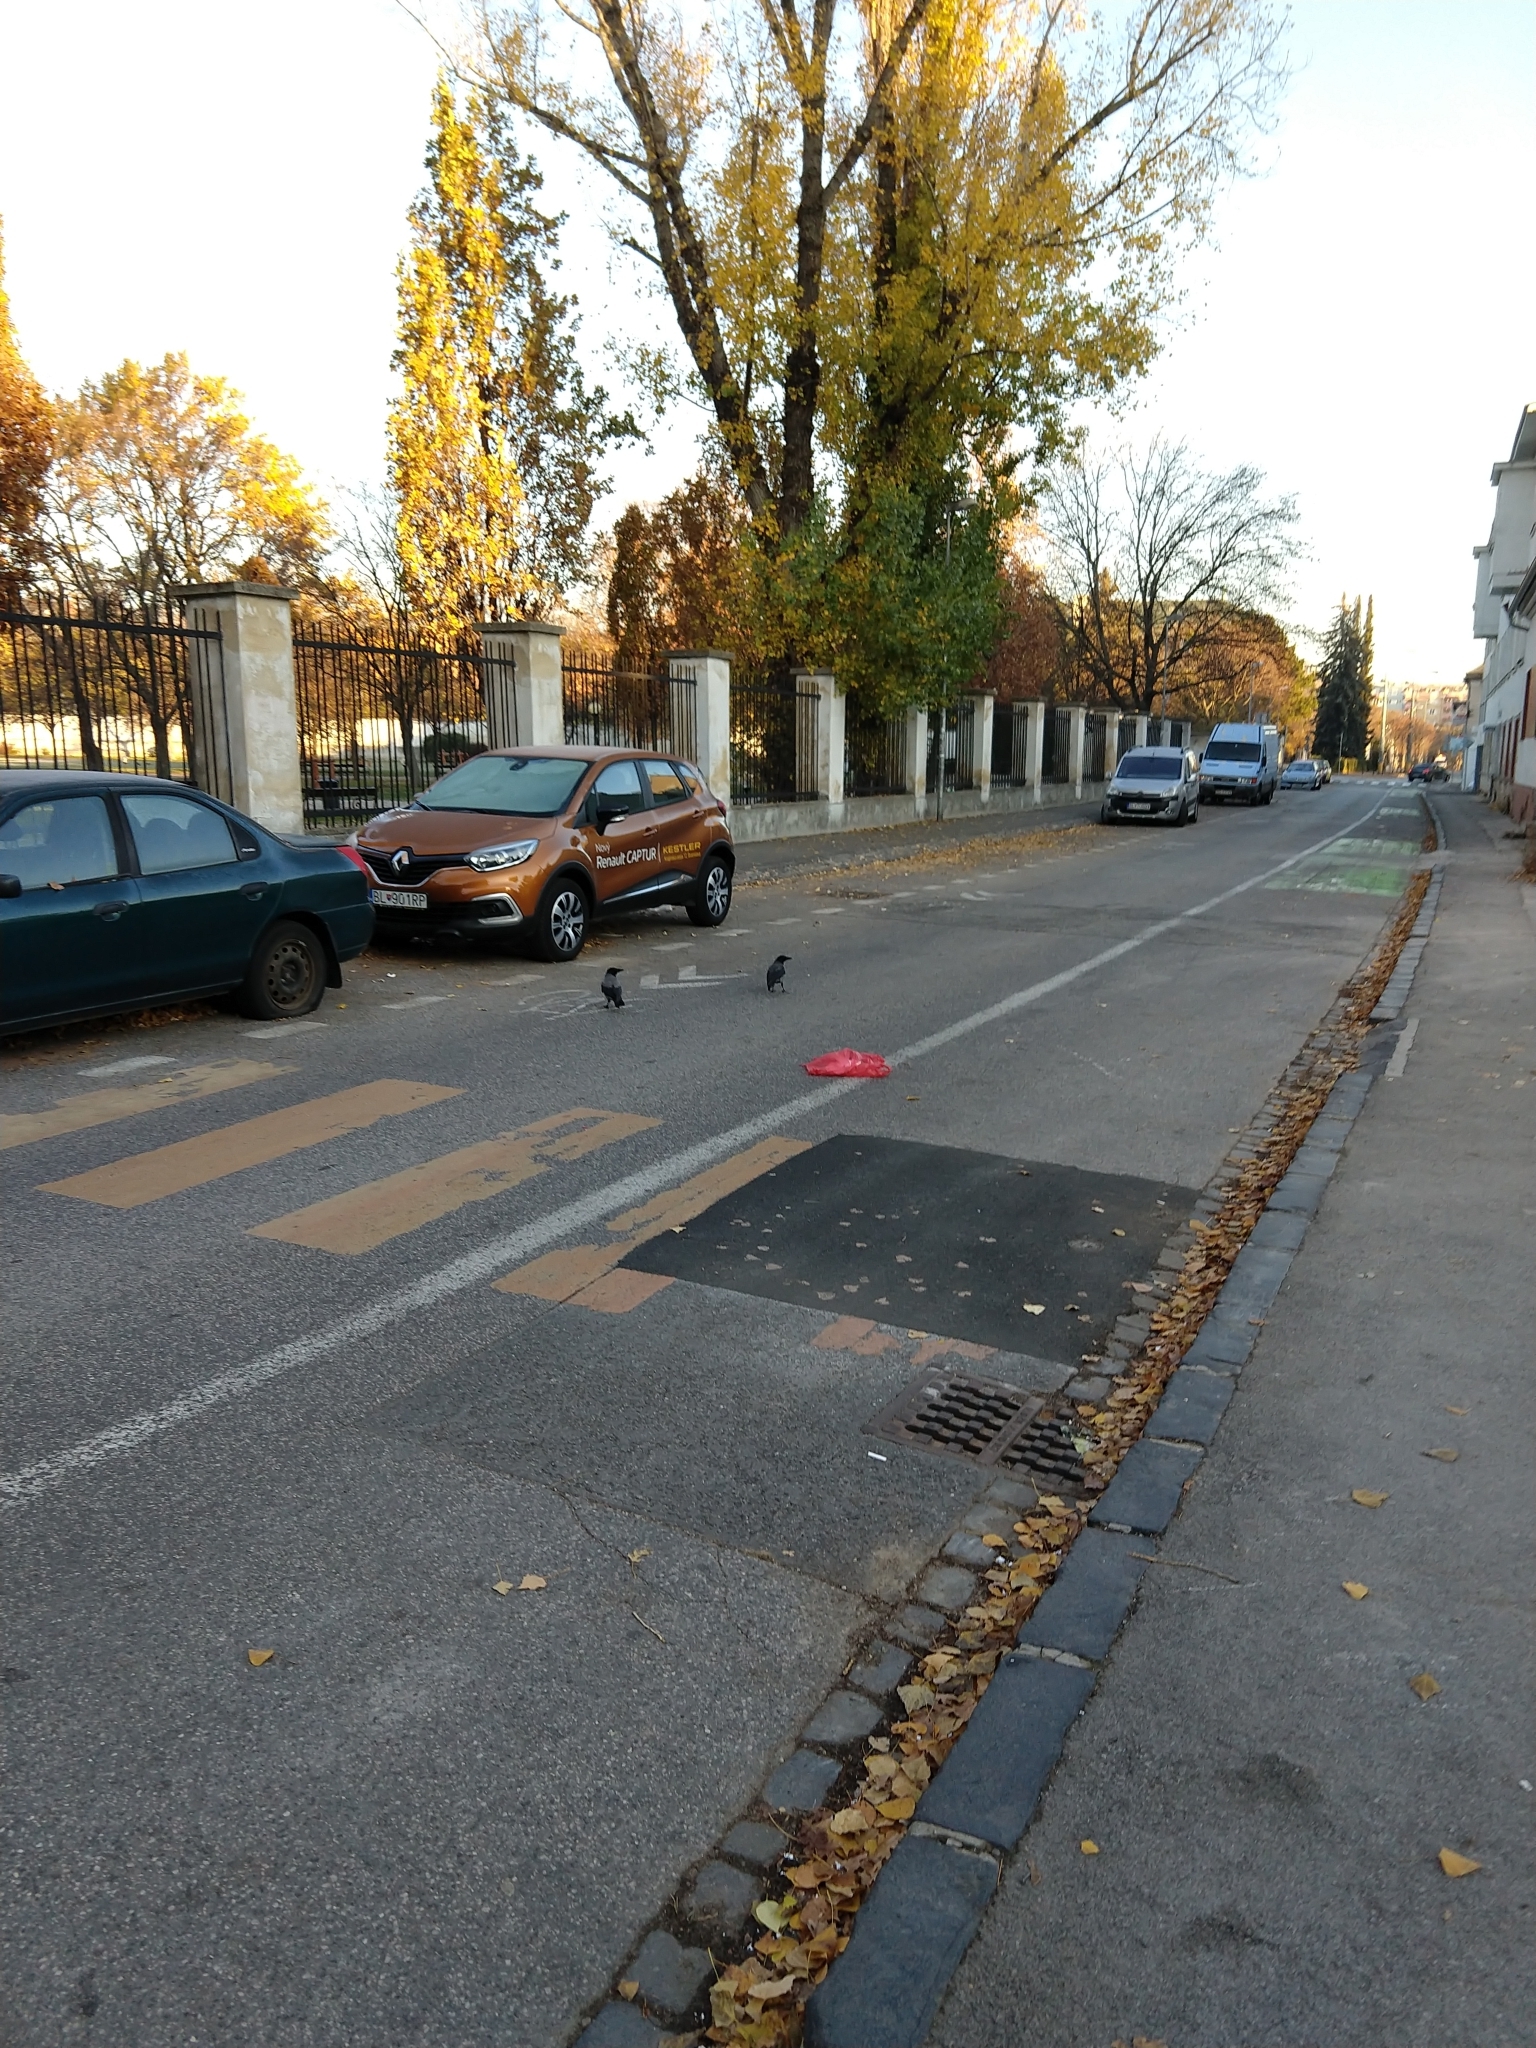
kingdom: Animalia
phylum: Chordata
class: Aves
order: Passeriformes
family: Corvidae
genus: Corvus
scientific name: Corvus cornix
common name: Hooded crow
